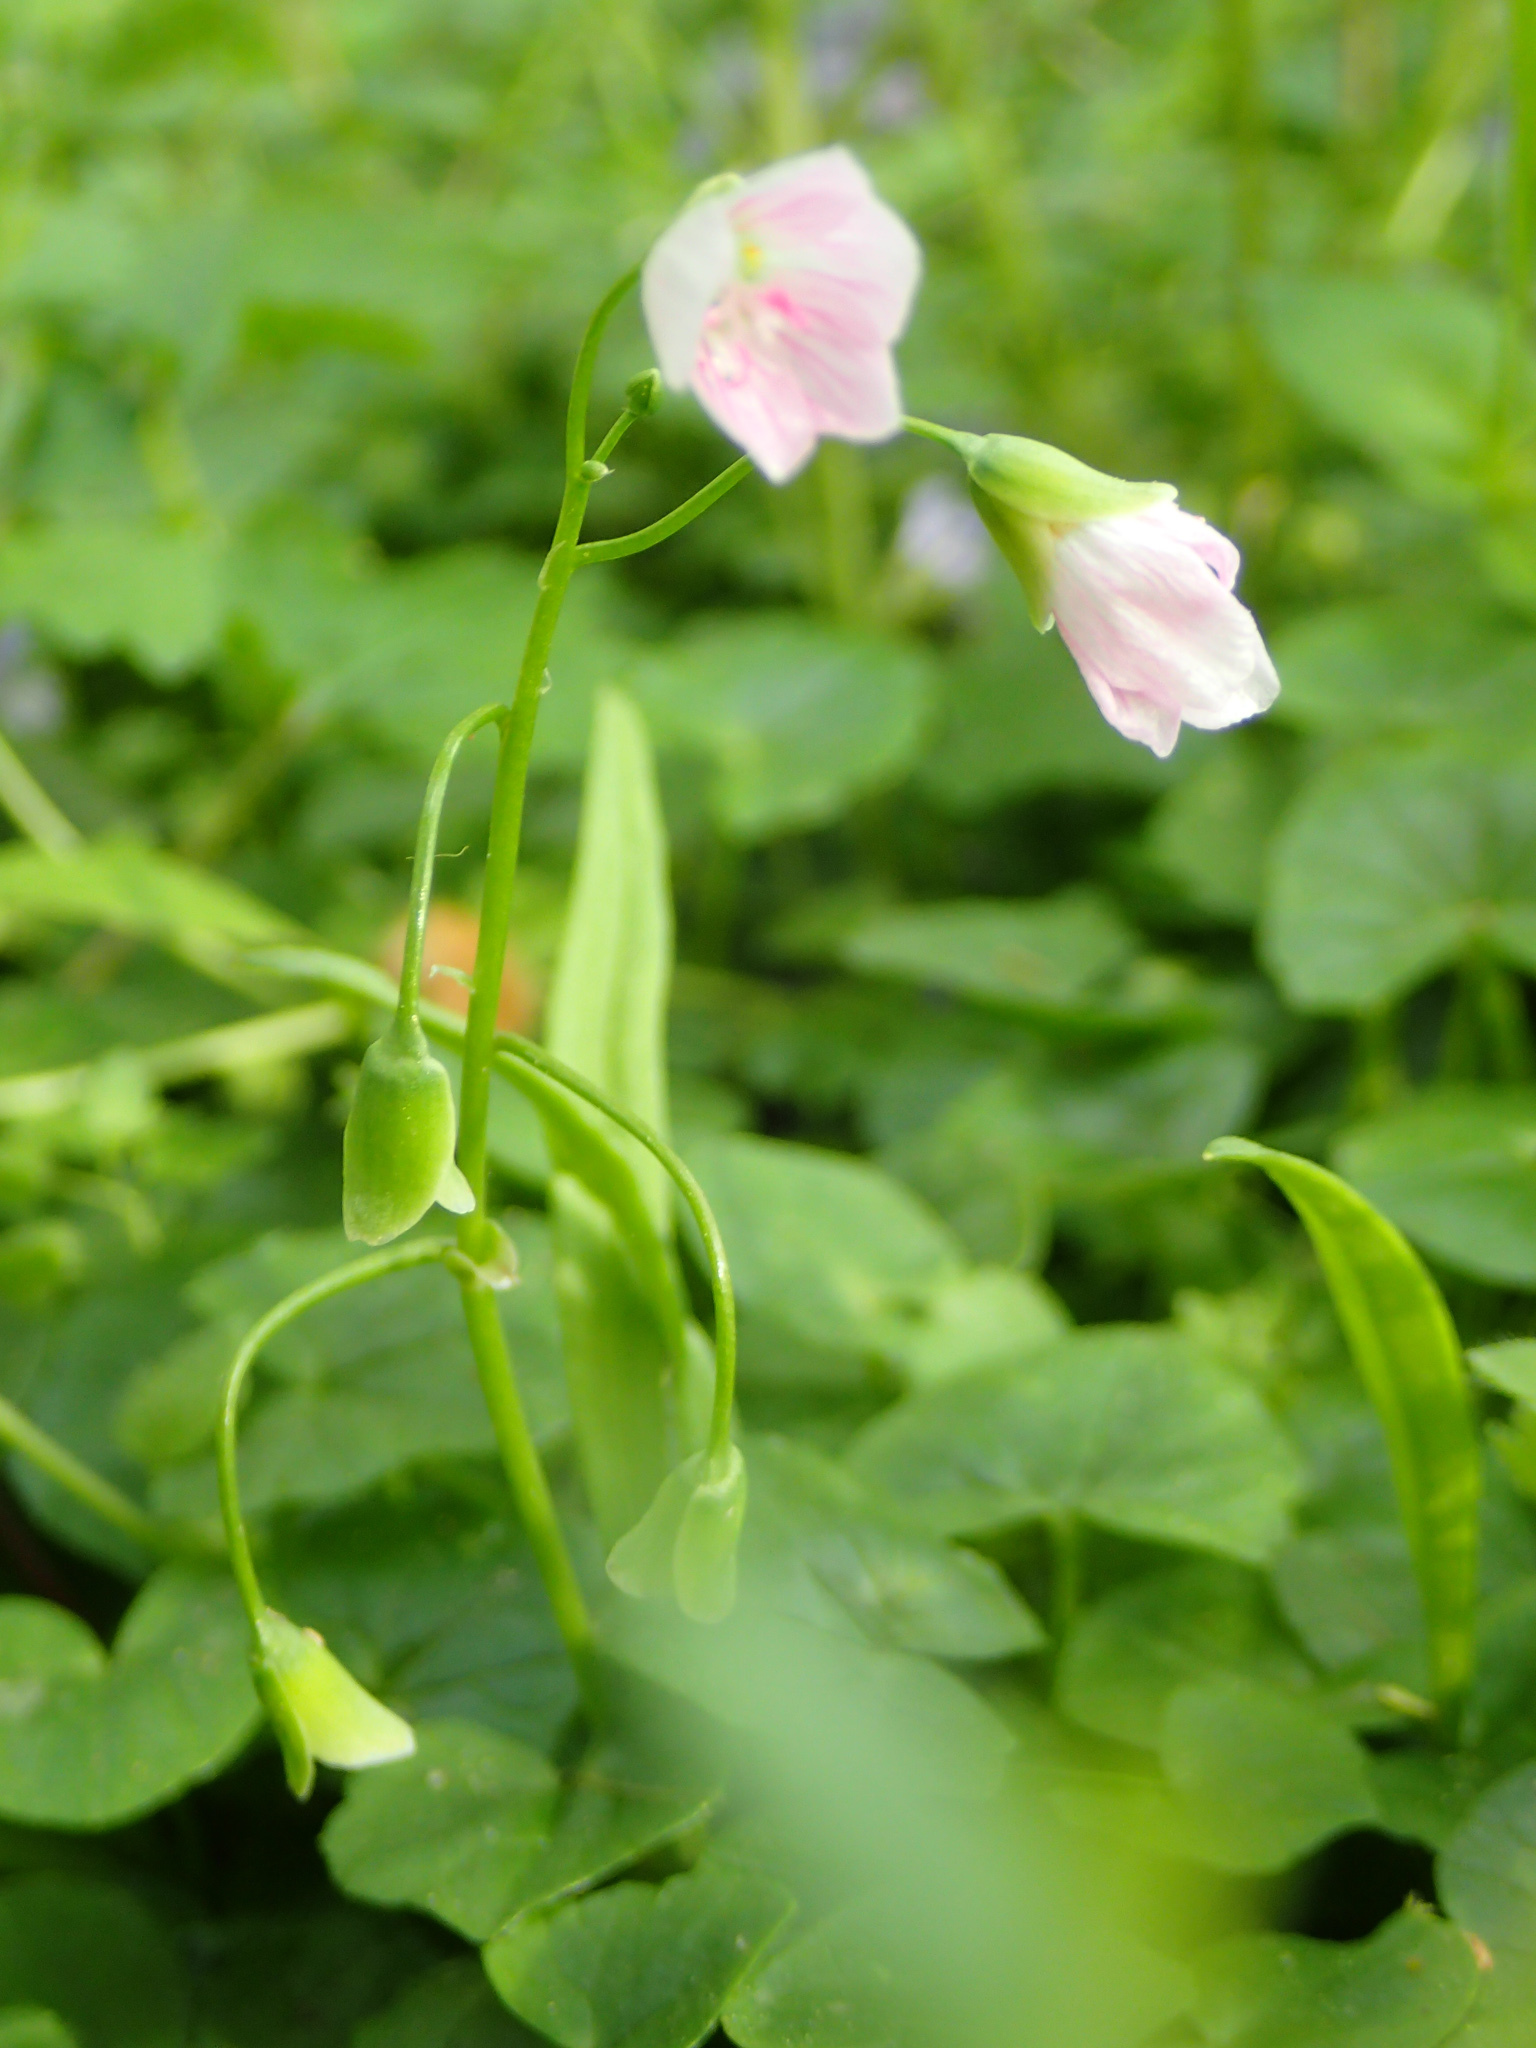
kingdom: Plantae
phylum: Tracheophyta
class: Magnoliopsida
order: Caryophyllales
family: Montiaceae
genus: Claytonia
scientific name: Claytonia virginica
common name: Virginia springbeauty
